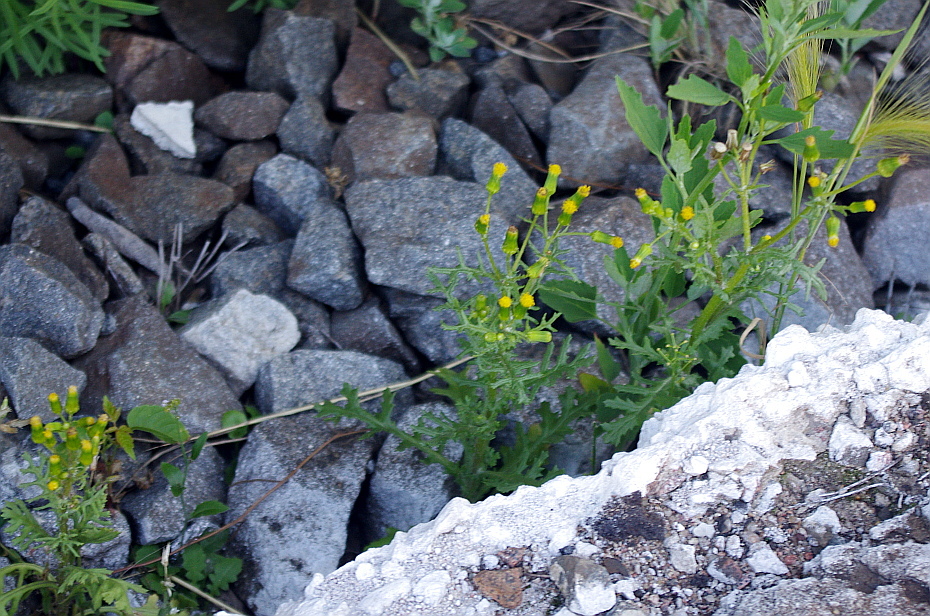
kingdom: Plantae
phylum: Tracheophyta
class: Magnoliopsida
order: Asterales
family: Asteraceae
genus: Senecio
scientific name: Senecio vulgaris
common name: Old-man-in-the-spring
